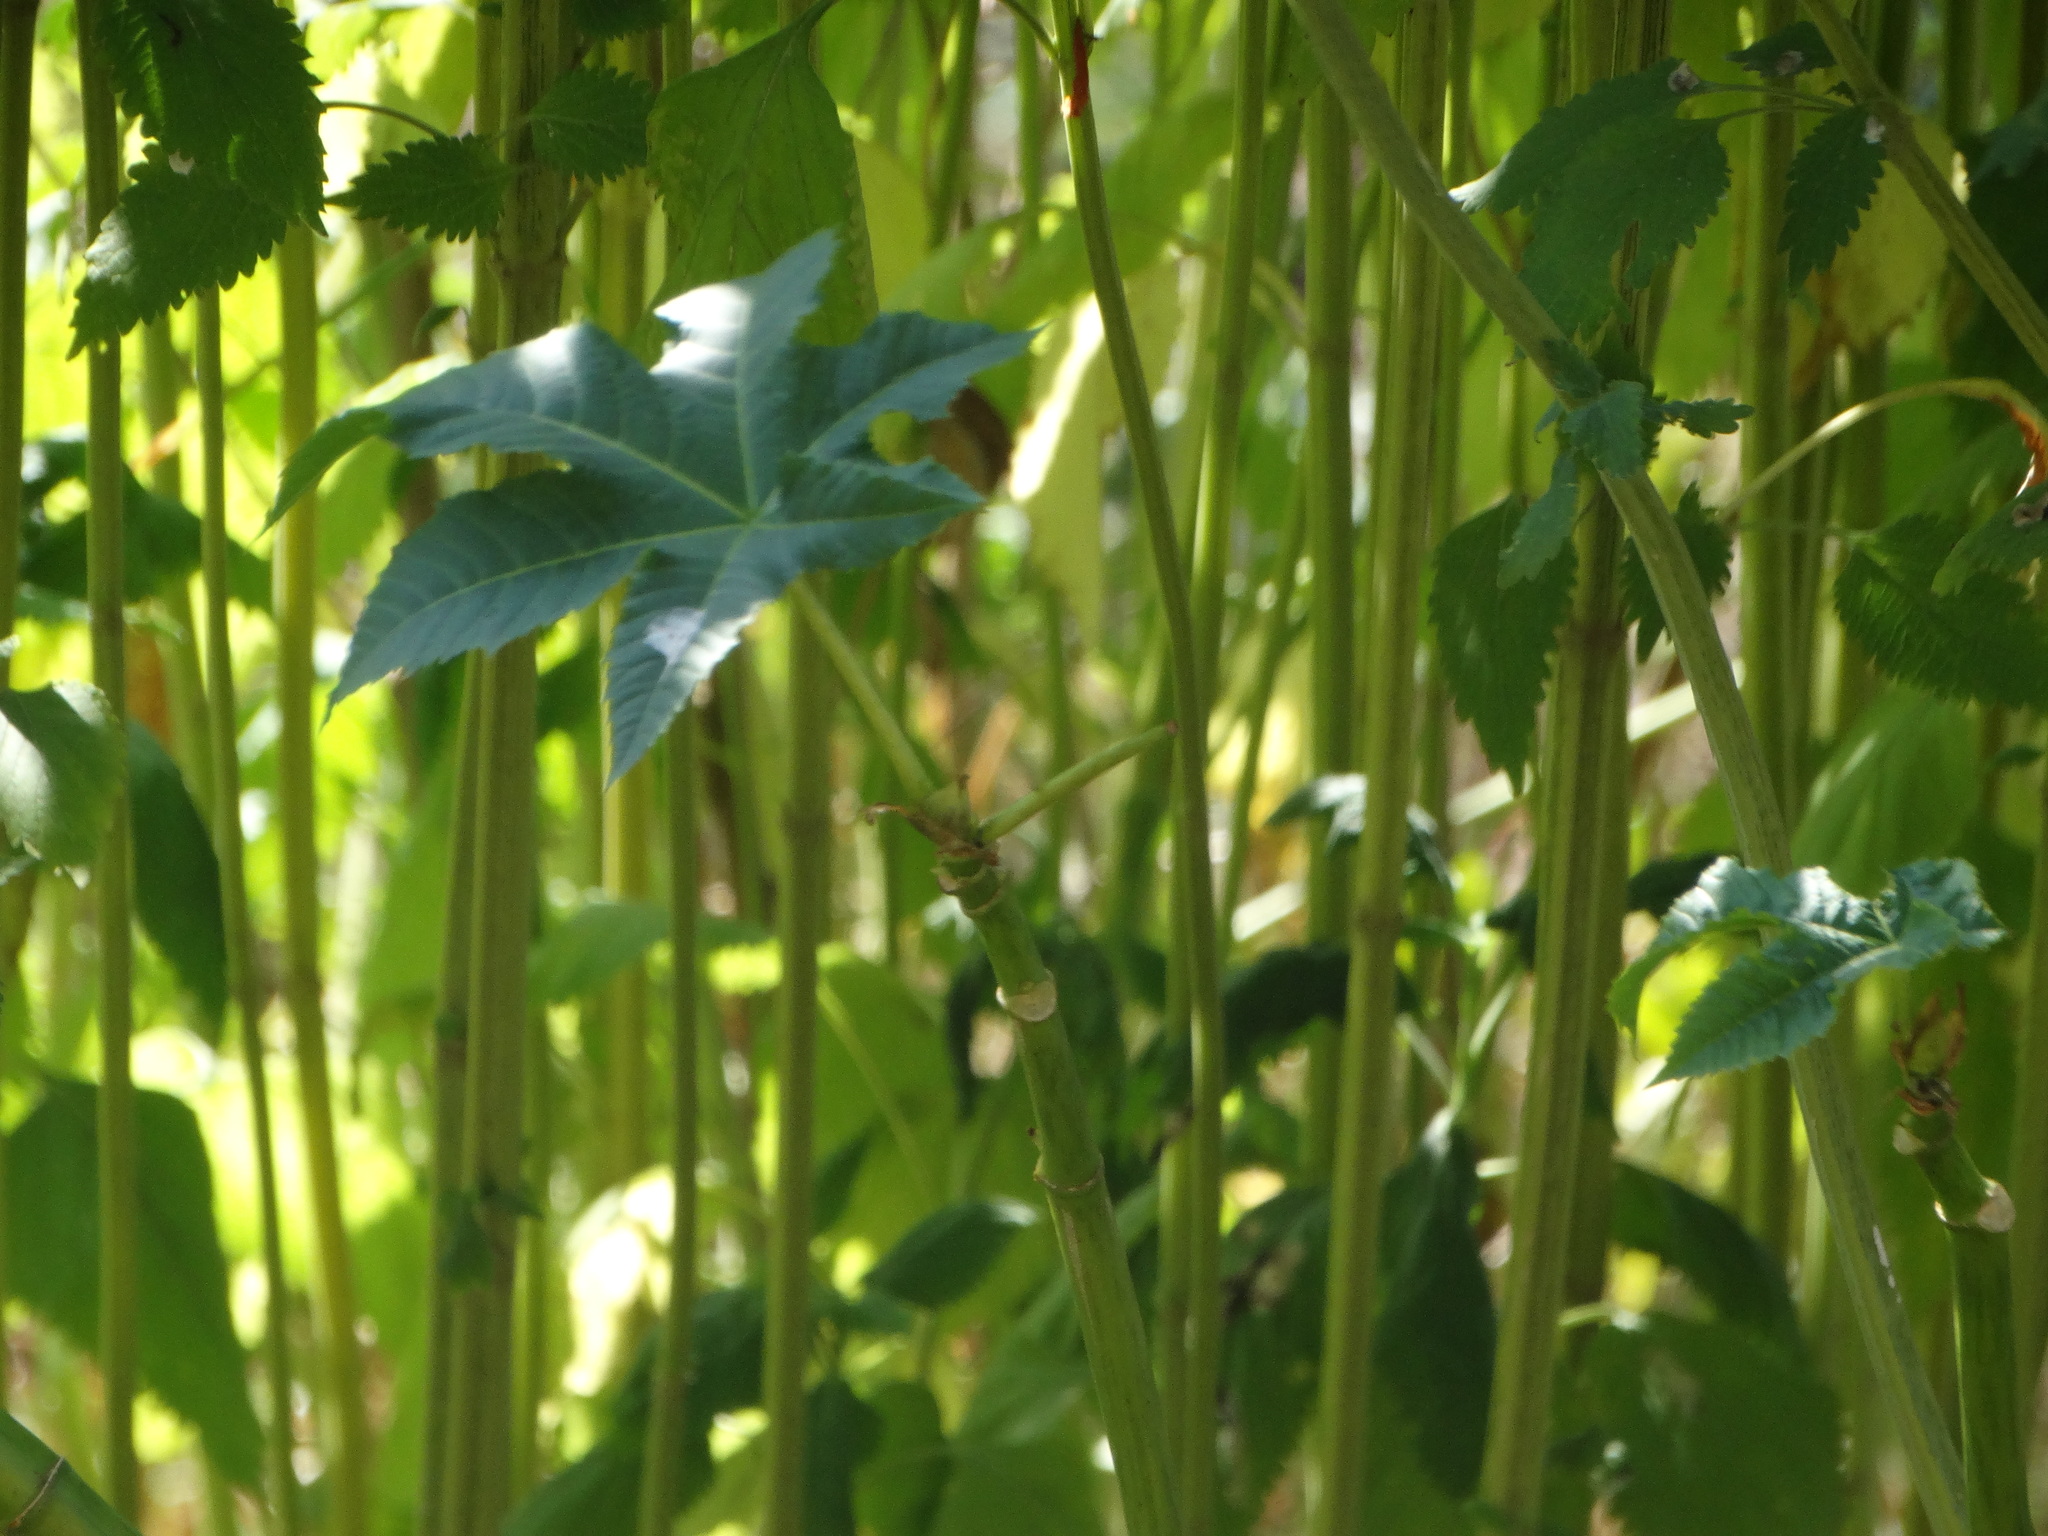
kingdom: Plantae
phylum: Tracheophyta
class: Magnoliopsida
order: Malpighiales
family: Euphorbiaceae
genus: Ricinus
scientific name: Ricinus communis
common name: Castor-oil-plant
